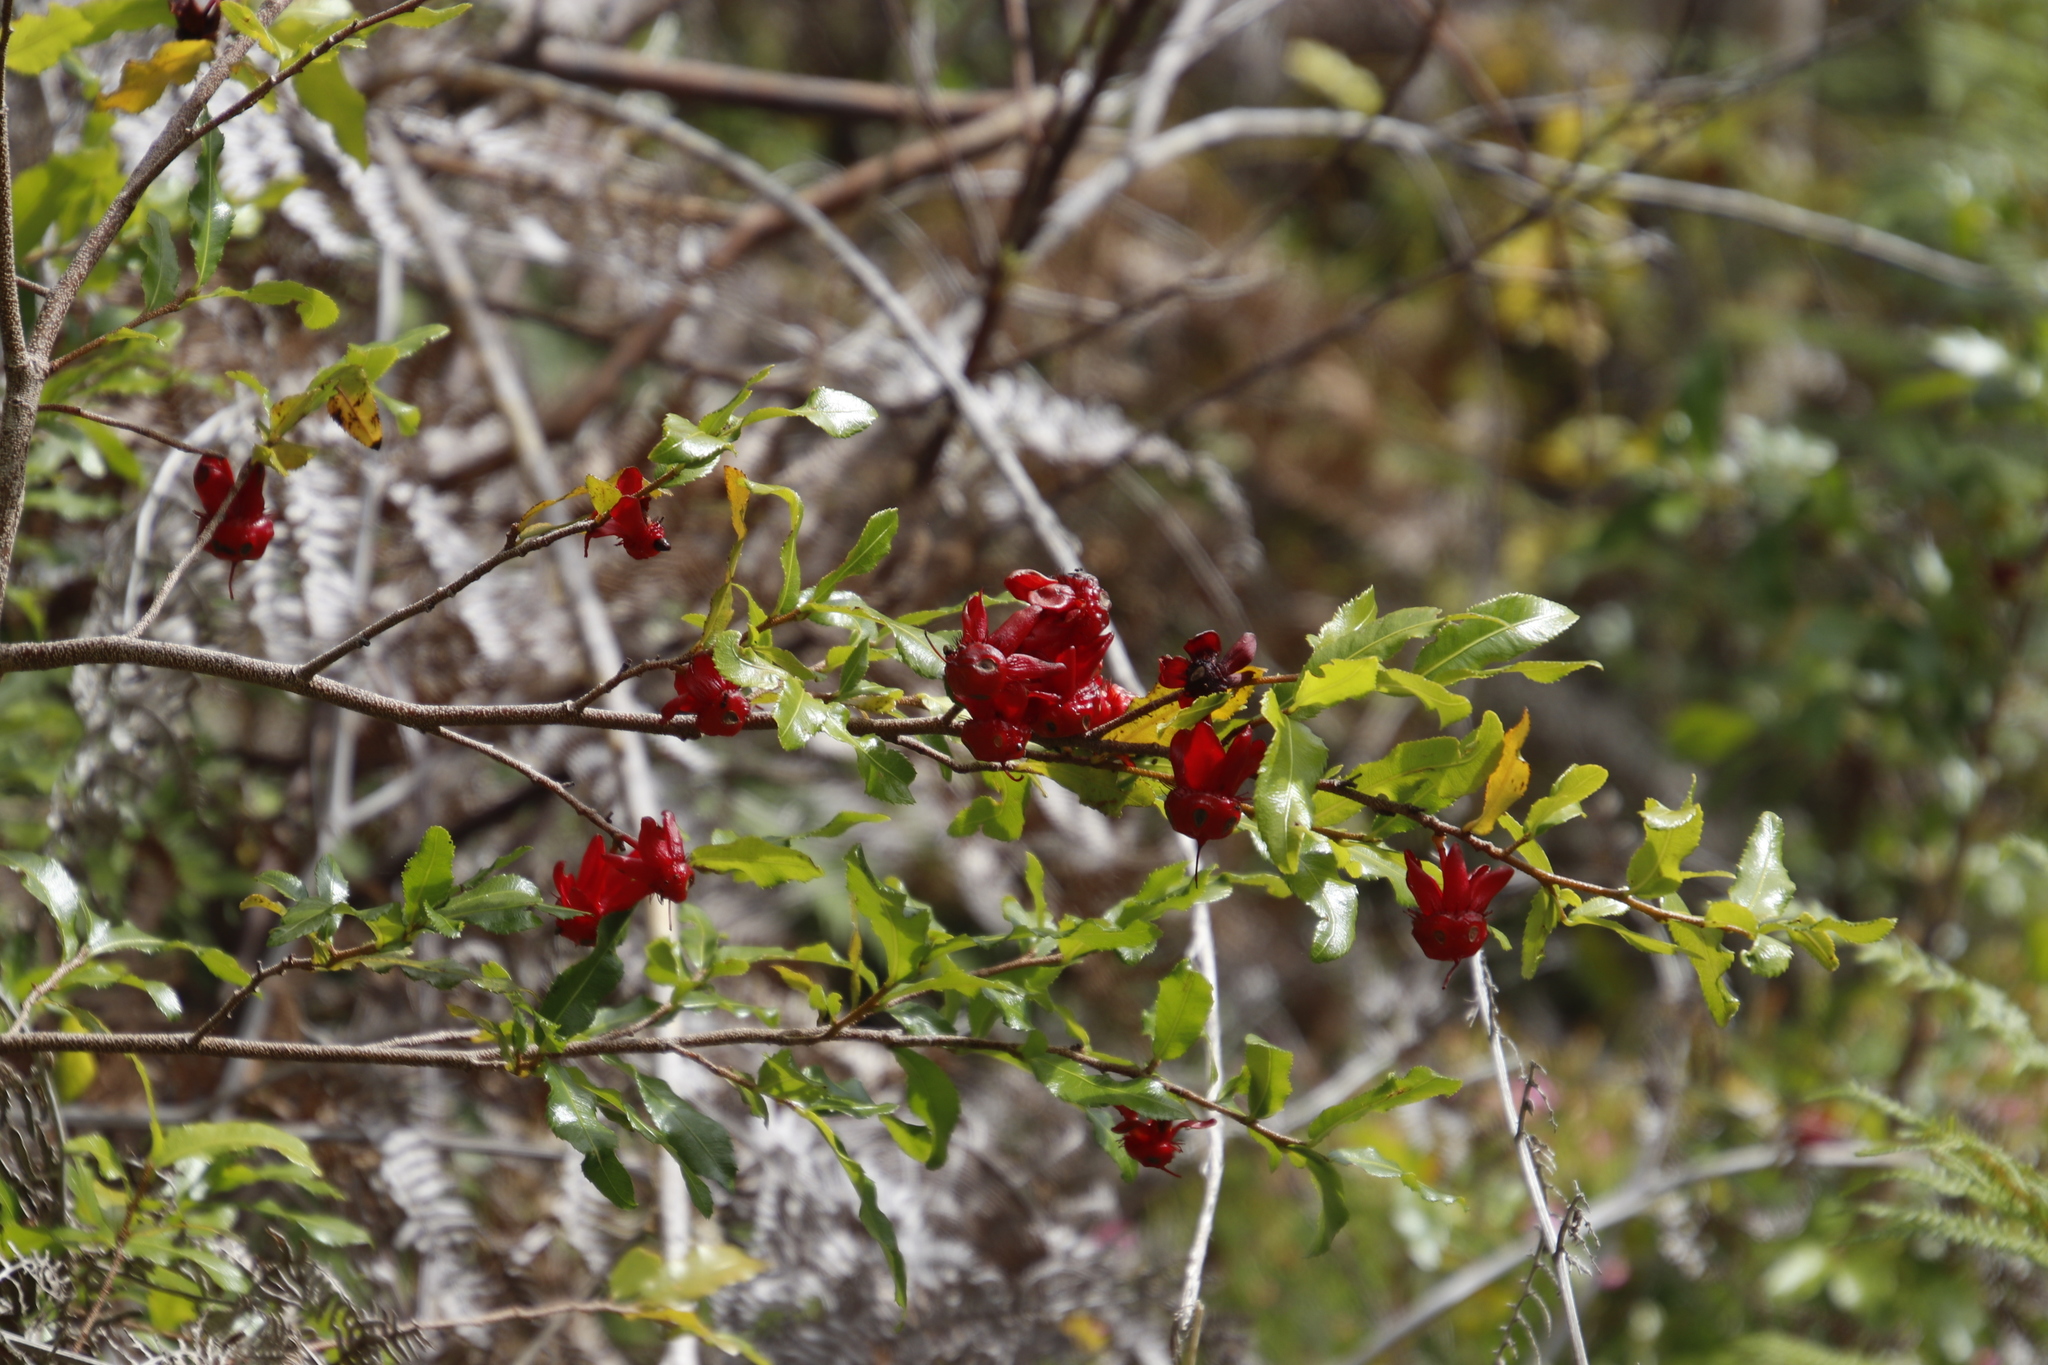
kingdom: Plantae
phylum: Tracheophyta
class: Magnoliopsida
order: Malpighiales
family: Ochnaceae
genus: Ochna
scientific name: Ochna serrulata
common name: Mickey mouse plant
